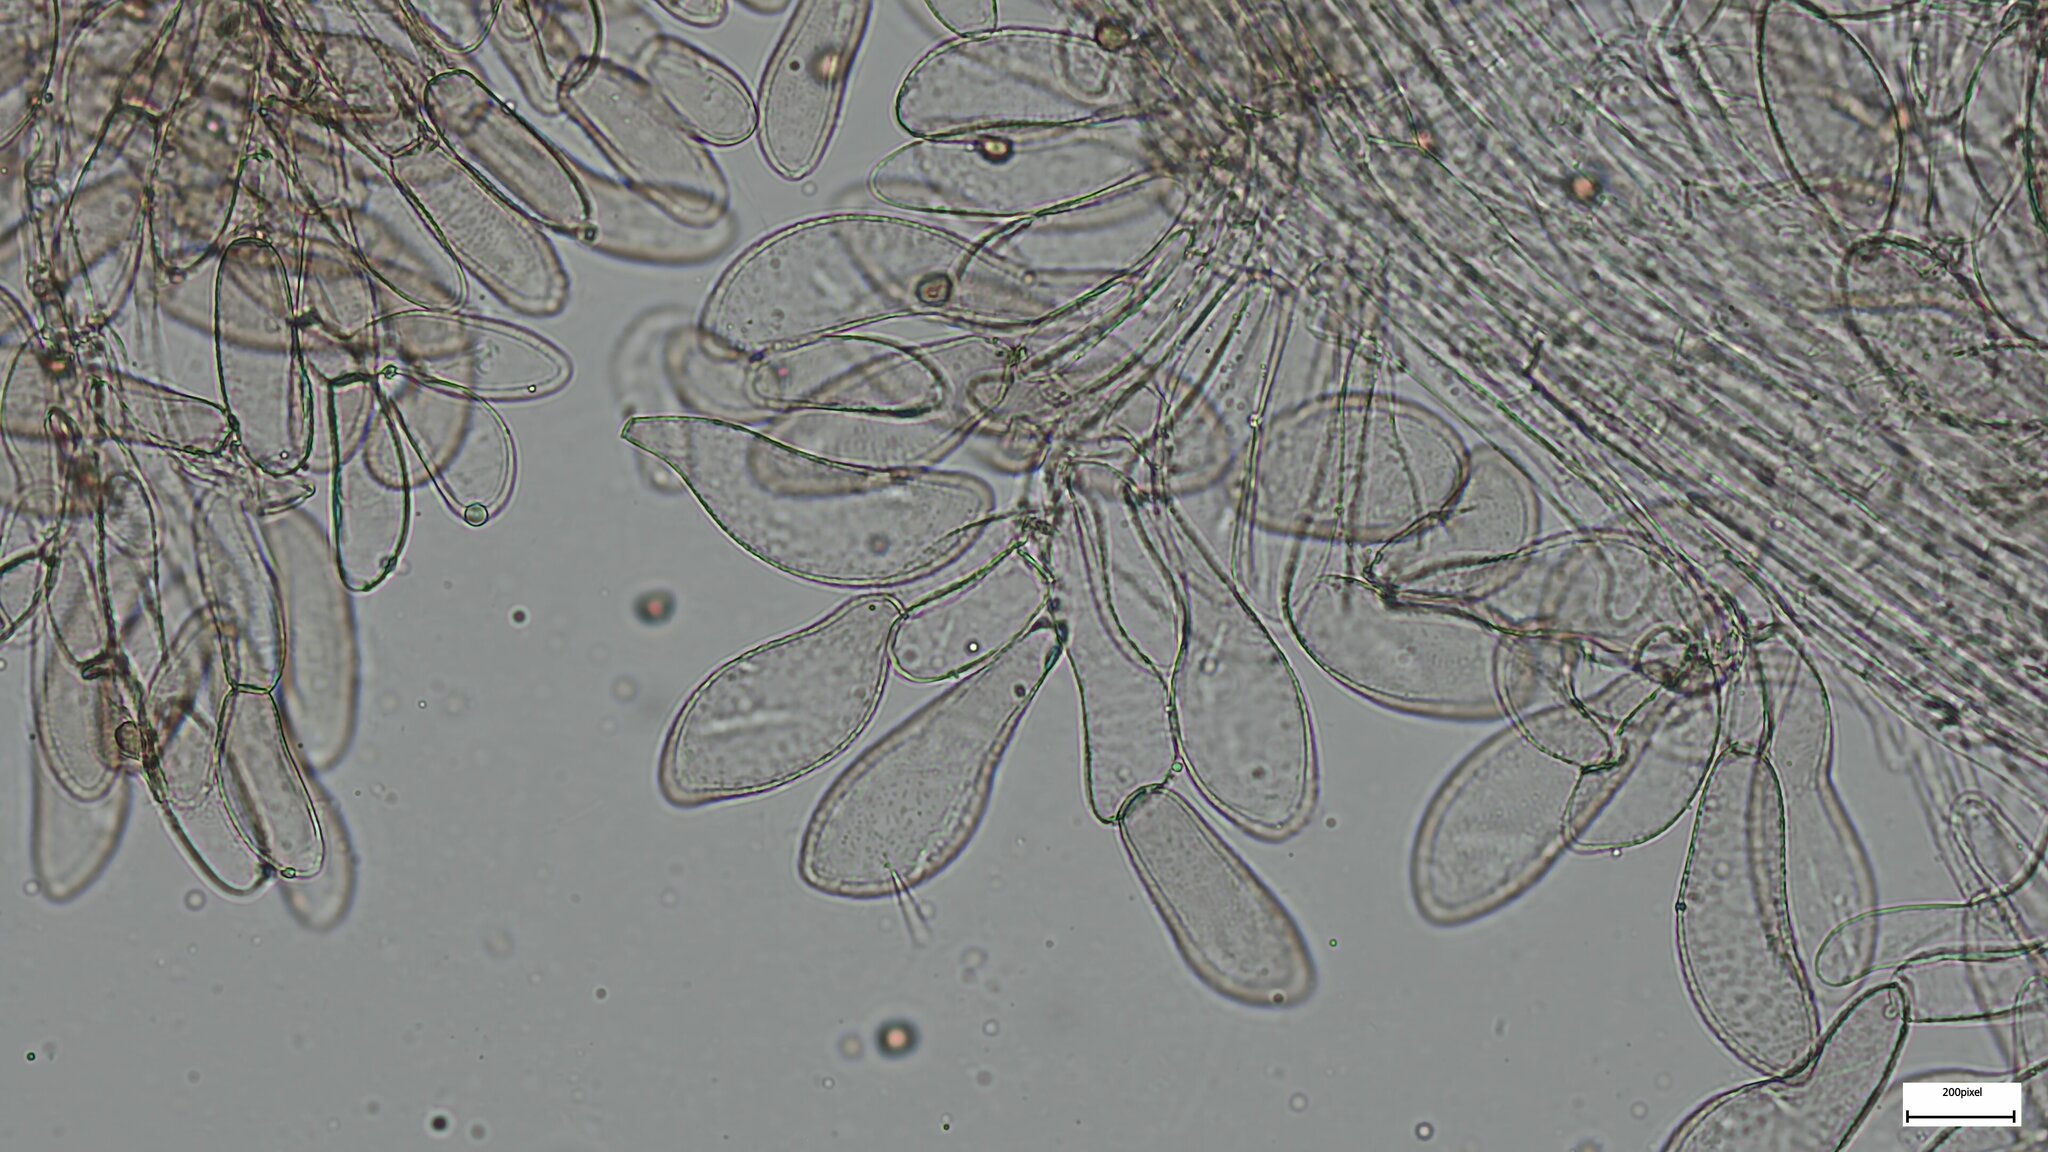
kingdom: Fungi
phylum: Basidiomycota
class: Agaricomycetes
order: Agaricales
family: Psathyrellaceae
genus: Cystoagaricus
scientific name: Cystoagaricus strobilomyces
